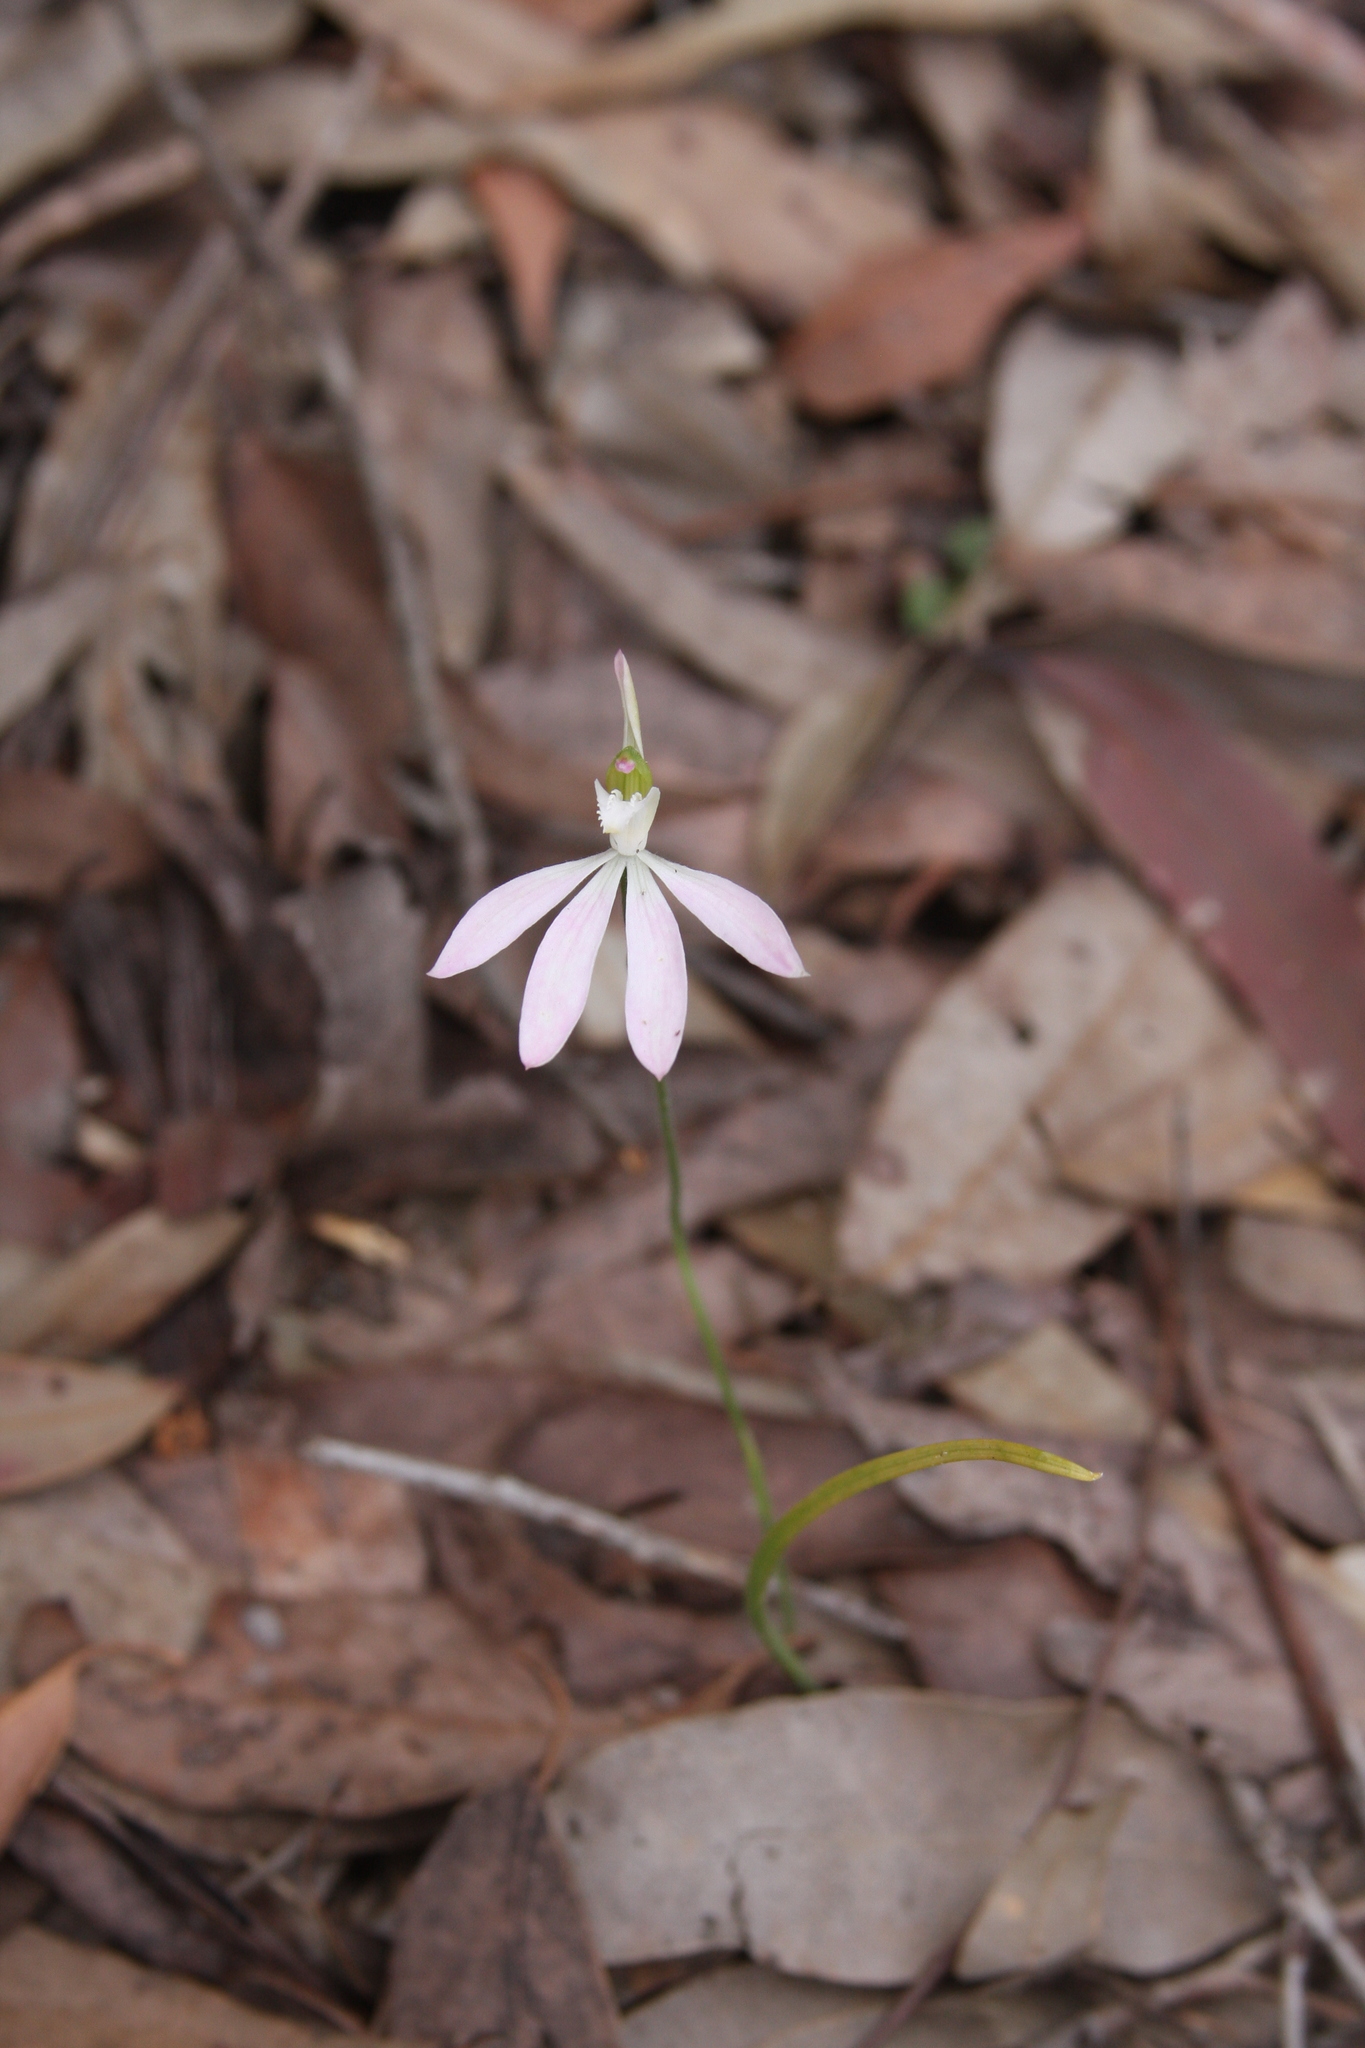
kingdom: Plantae
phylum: Tracheophyta
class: Liliopsida
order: Asparagales
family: Orchidaceae
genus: Caladenia
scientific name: Caladenia catenata
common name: White caladenia
